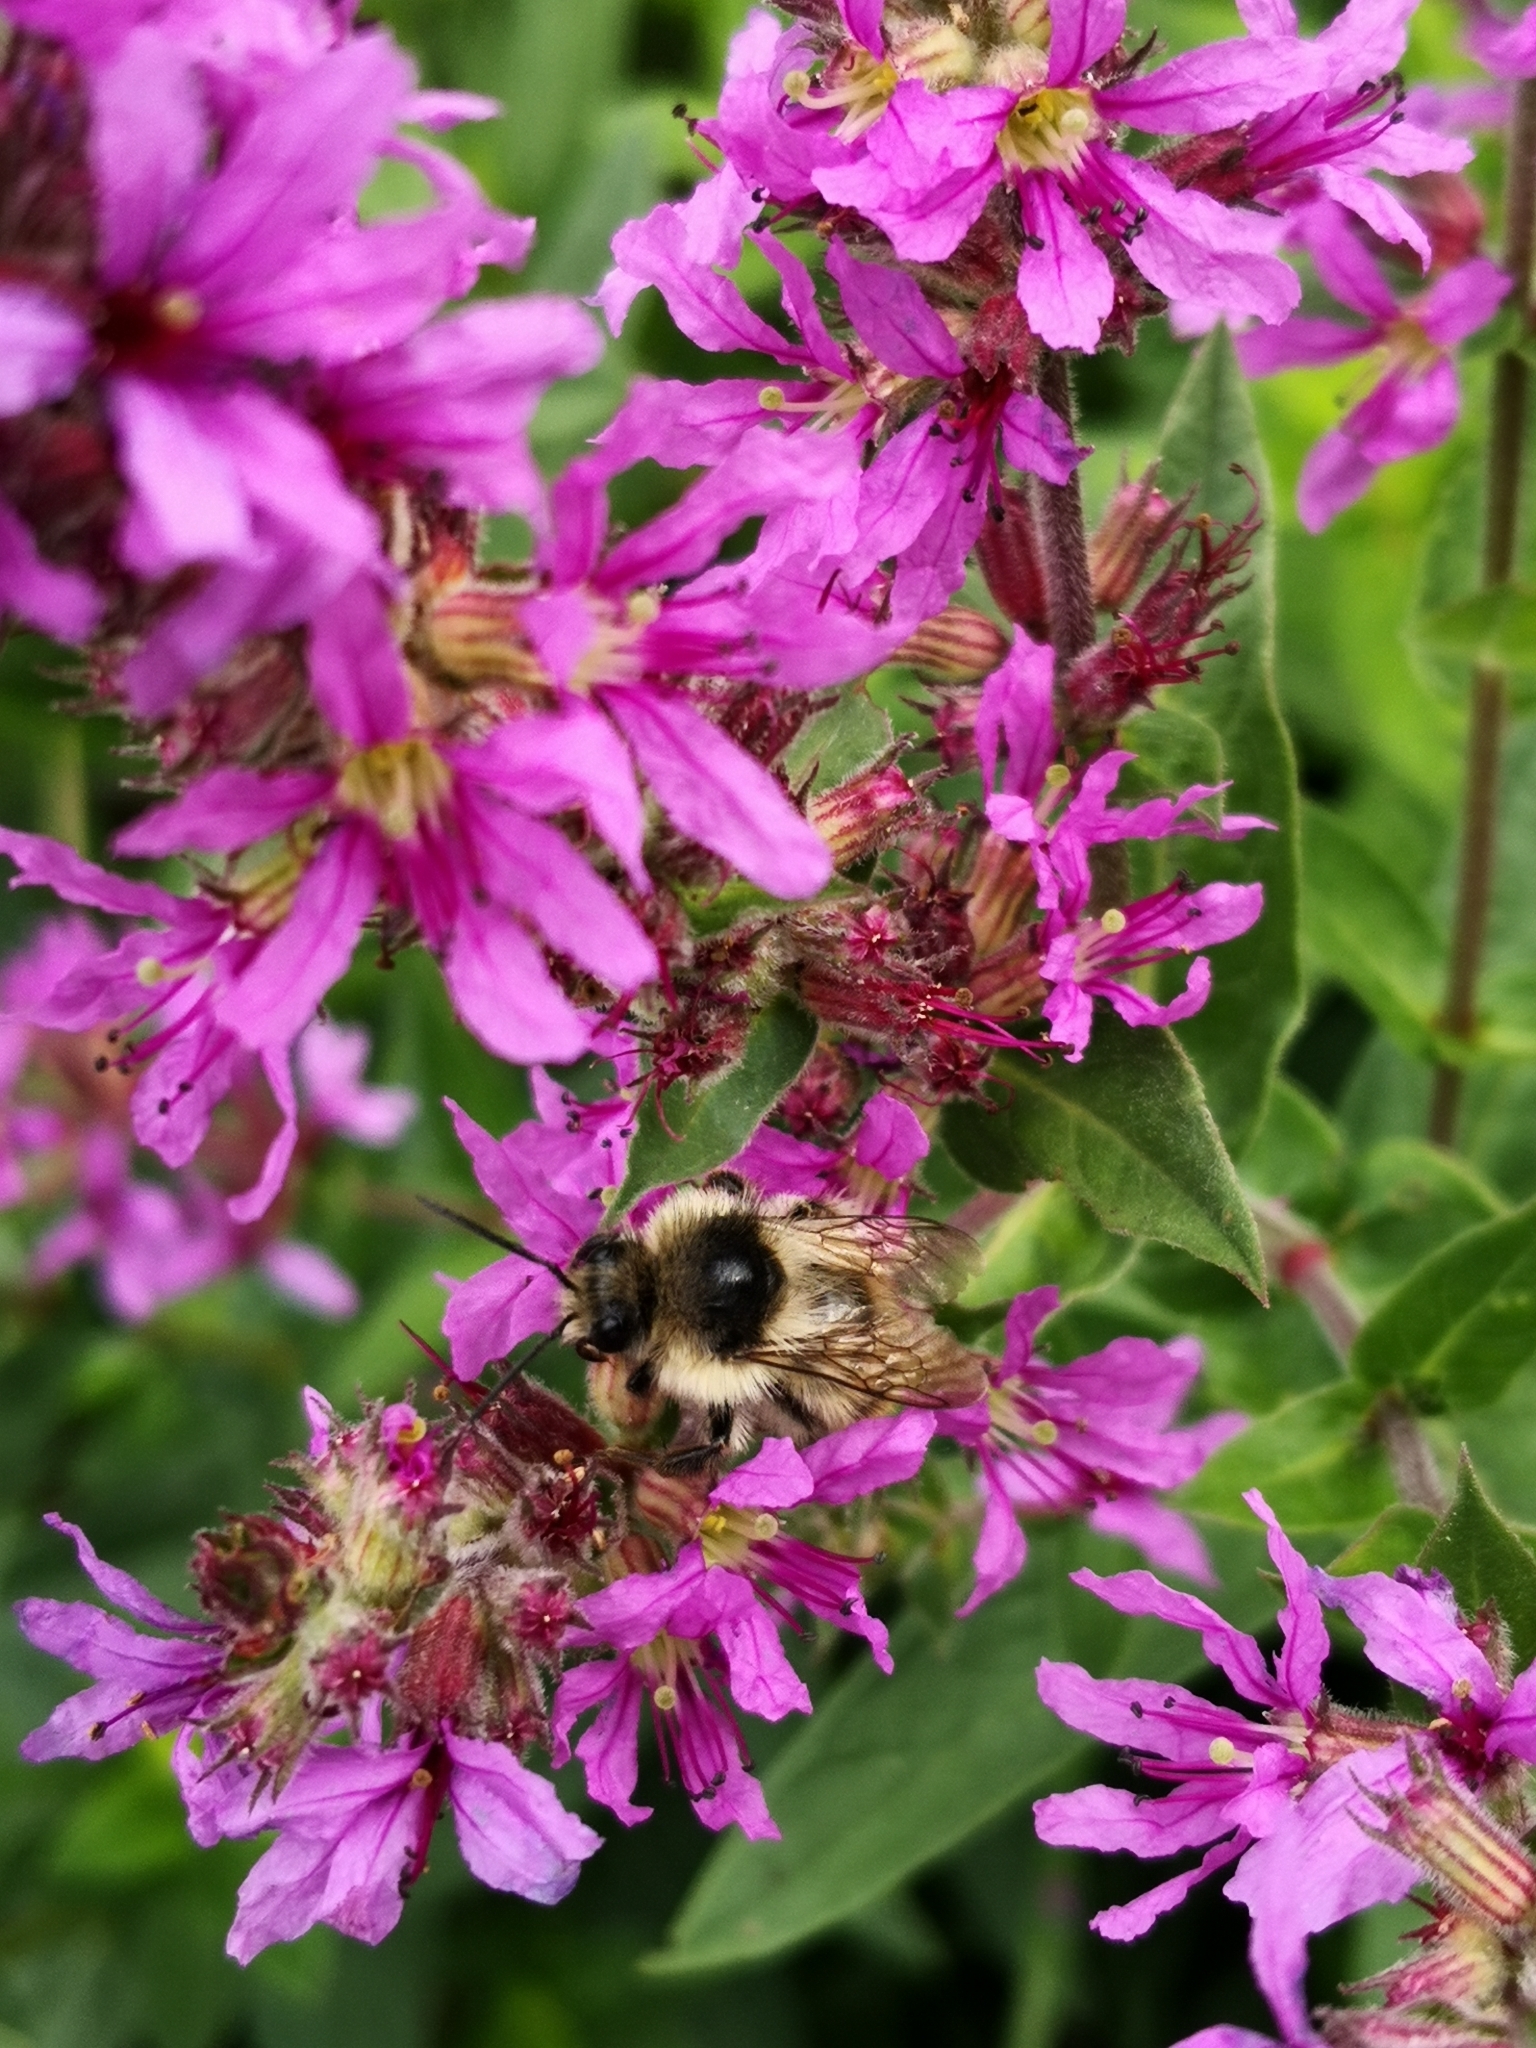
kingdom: Animalia
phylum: Arthropoda
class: Insecta
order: Hymenoptera
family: Apidae
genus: Bombus
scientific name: Bombus sylvarum
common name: Shrill carder bee
